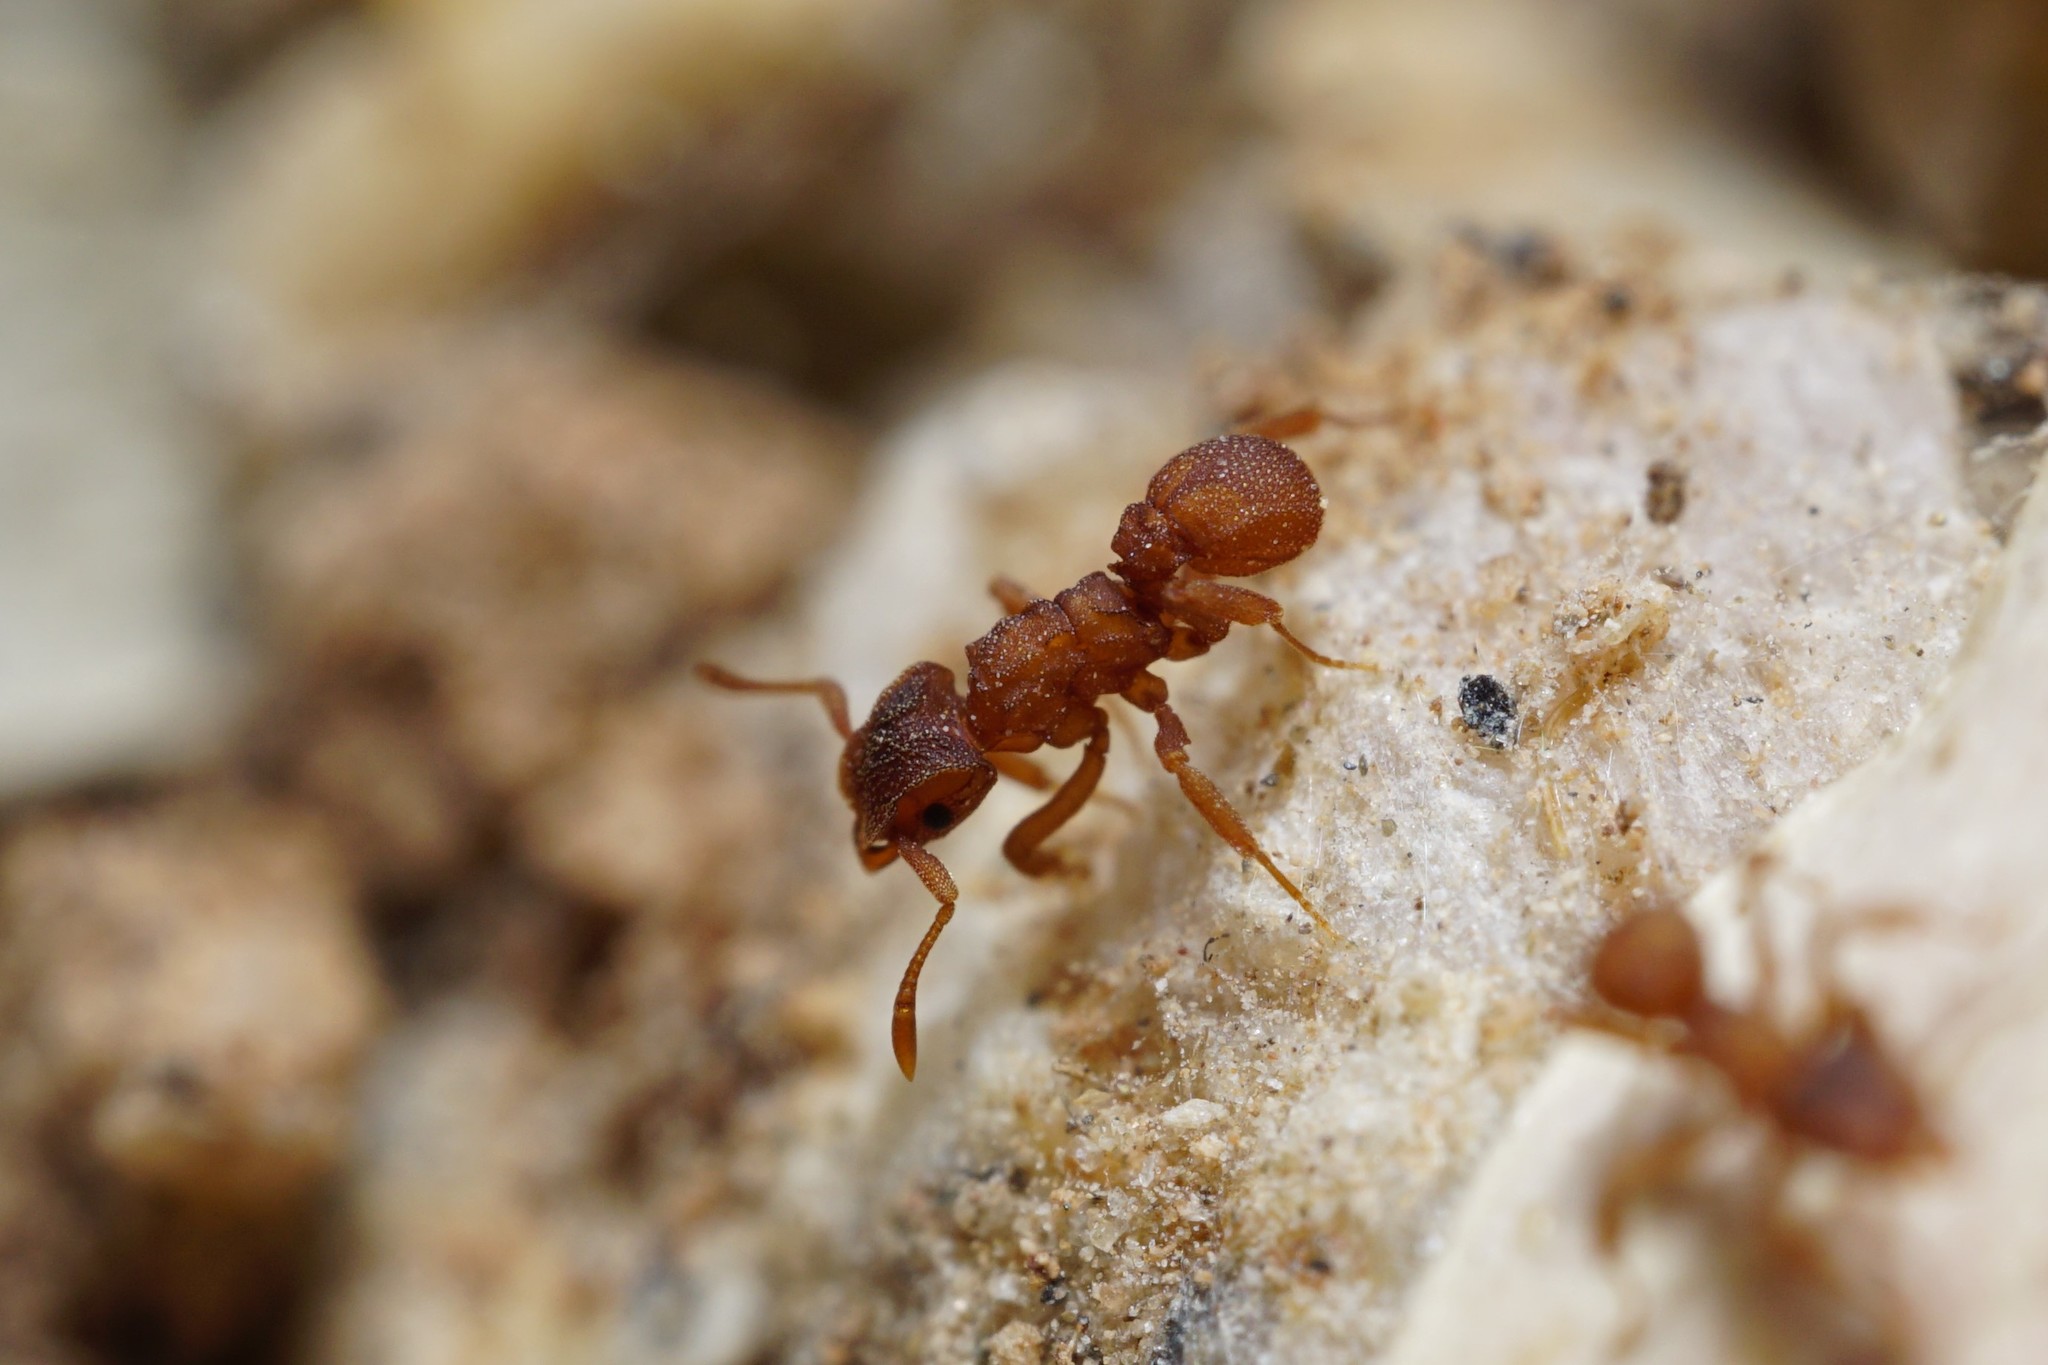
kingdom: Animalia
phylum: Arthropoda
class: Insecta
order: Hymenoptera
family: Formicidae
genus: Cyphomyrmex
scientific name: Cyphomyrmex wheeleri
